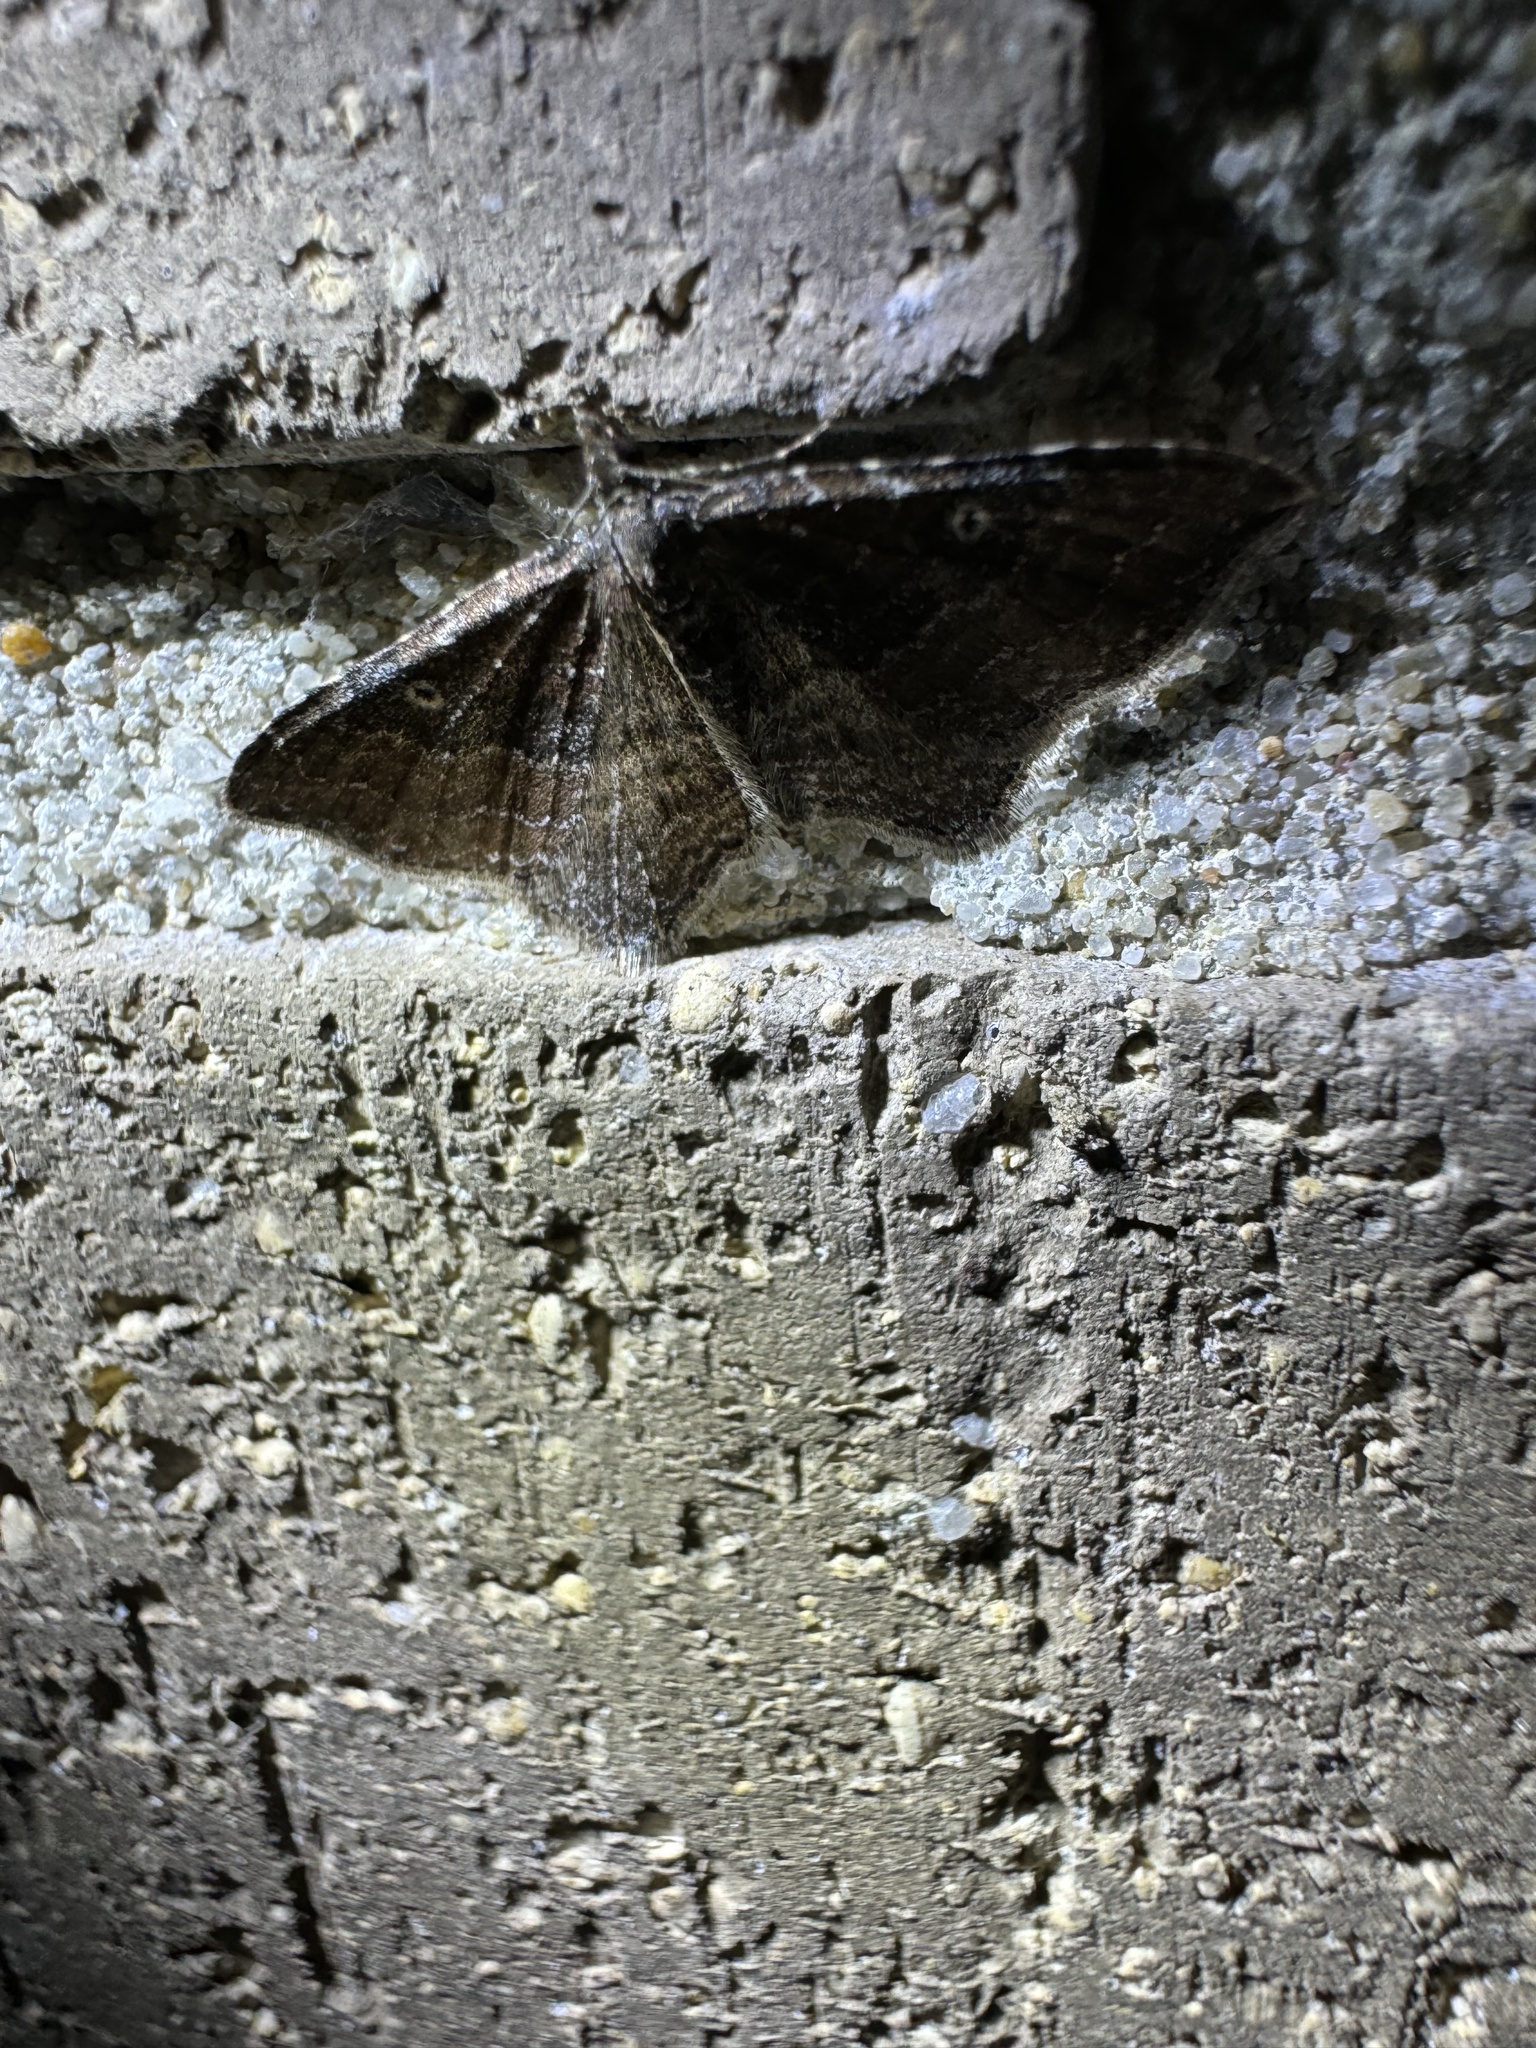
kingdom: Animalia
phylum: Arthropoda
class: Insecta
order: Lepidoptera
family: Geometridae
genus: Orthonama
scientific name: Orthonama obstipata
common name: The gem
